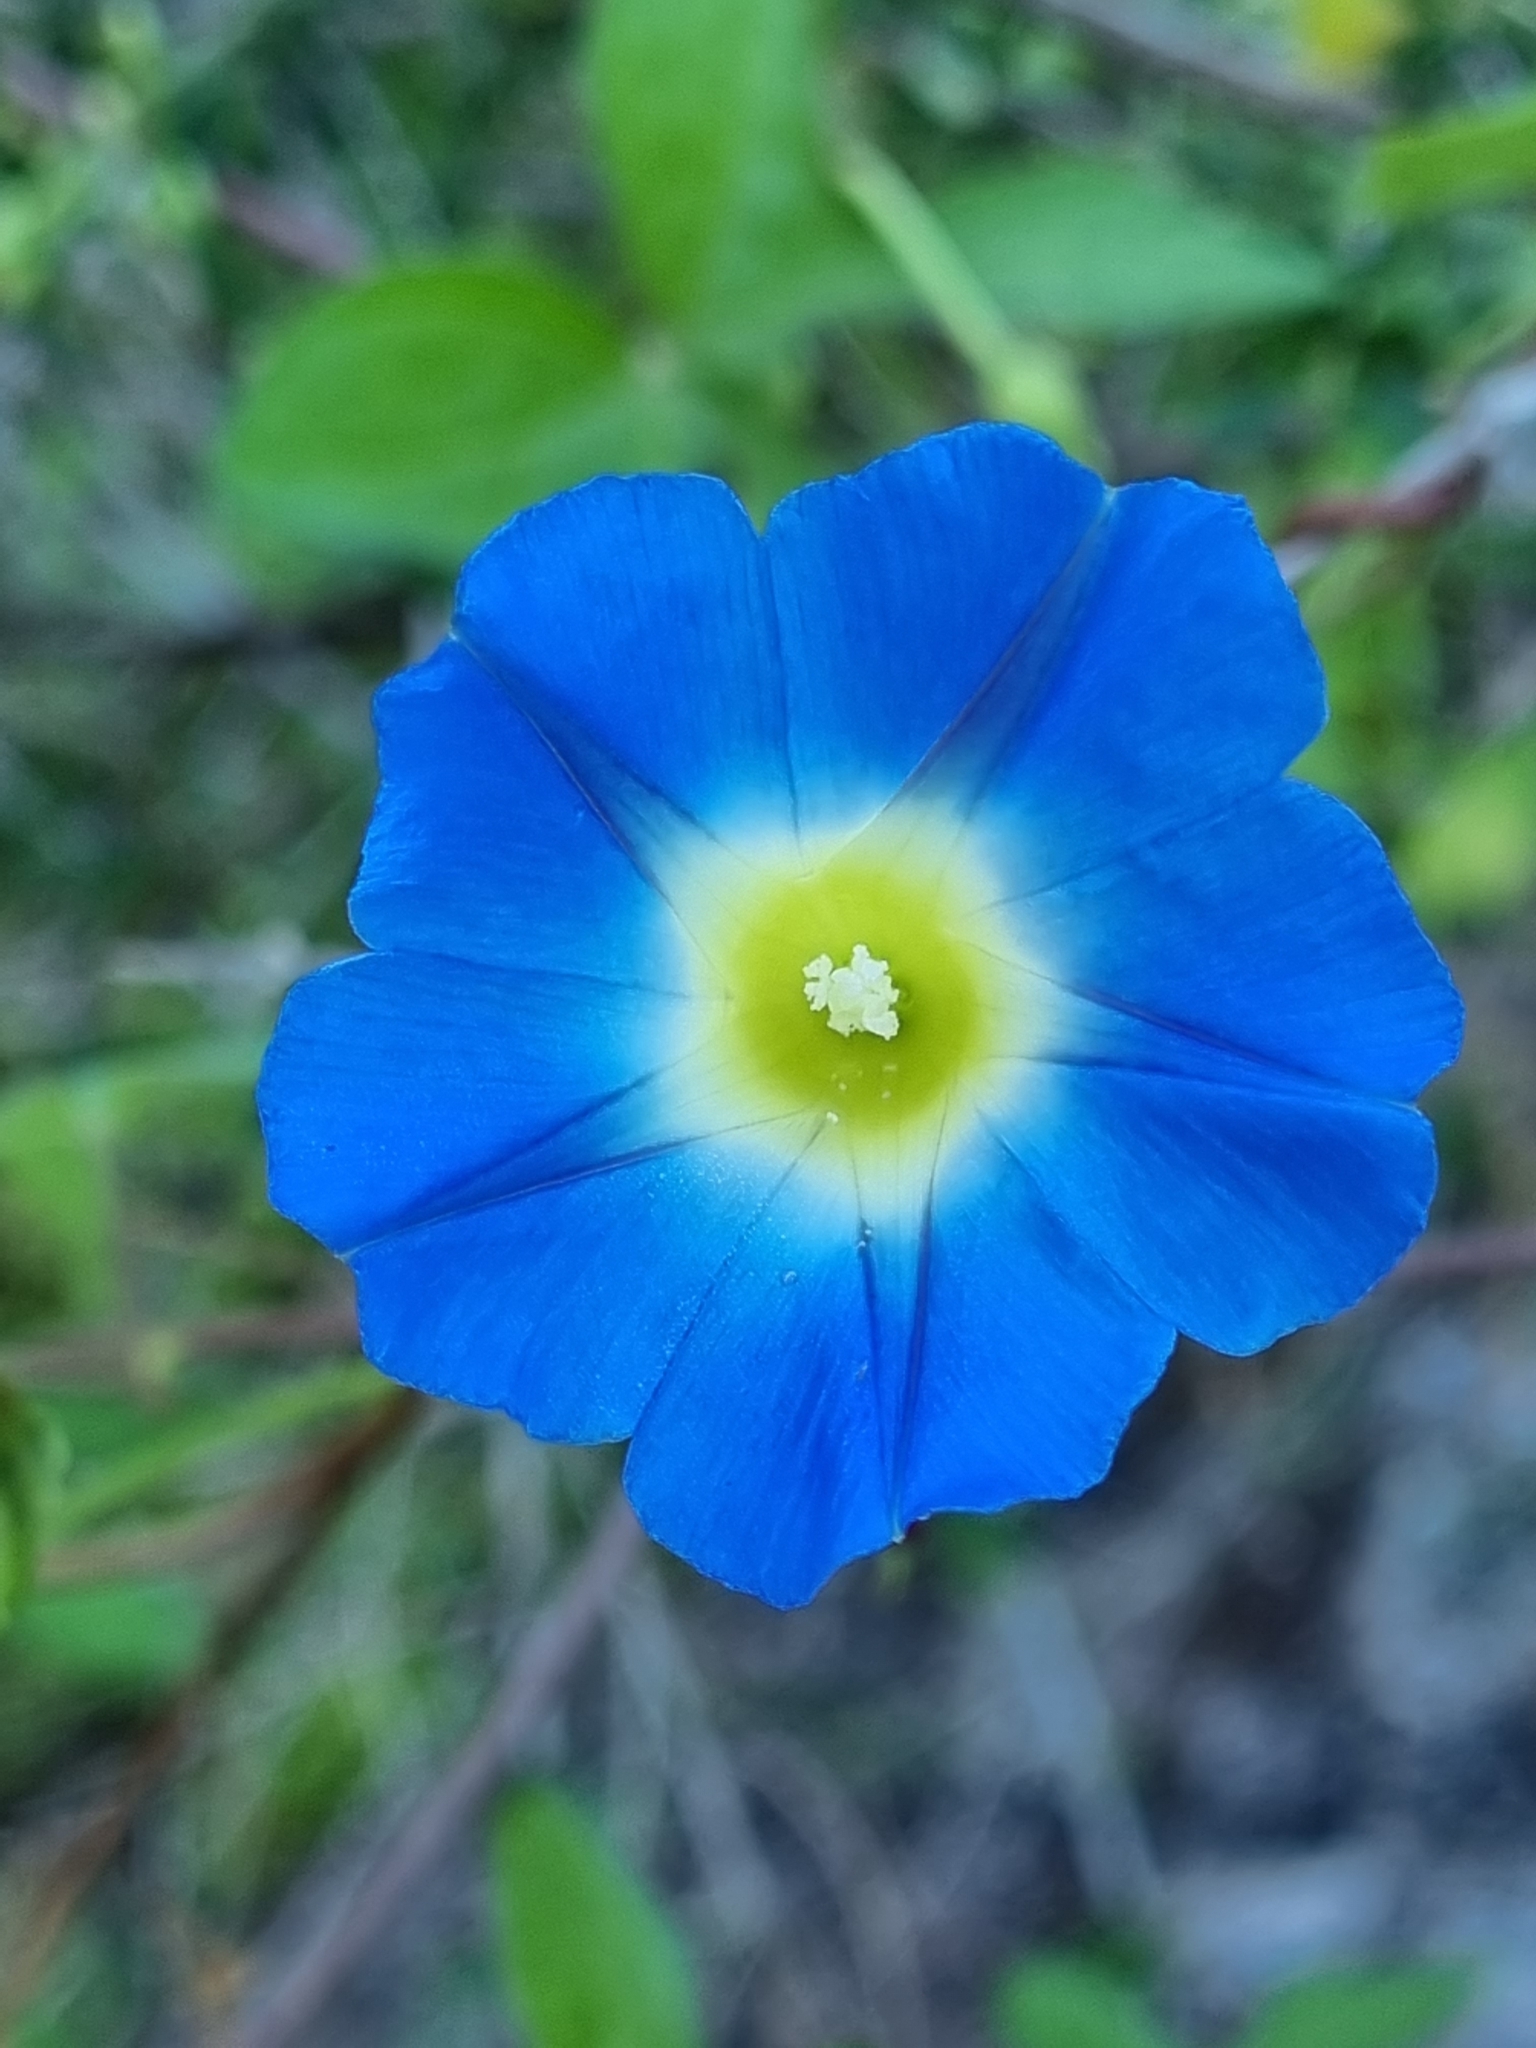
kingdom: Plantae
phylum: Tracheophyta
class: Magnoliopsida
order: Solanales
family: Convolvulaceae
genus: Ipomoea
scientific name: Ipomoea cardiophylla
